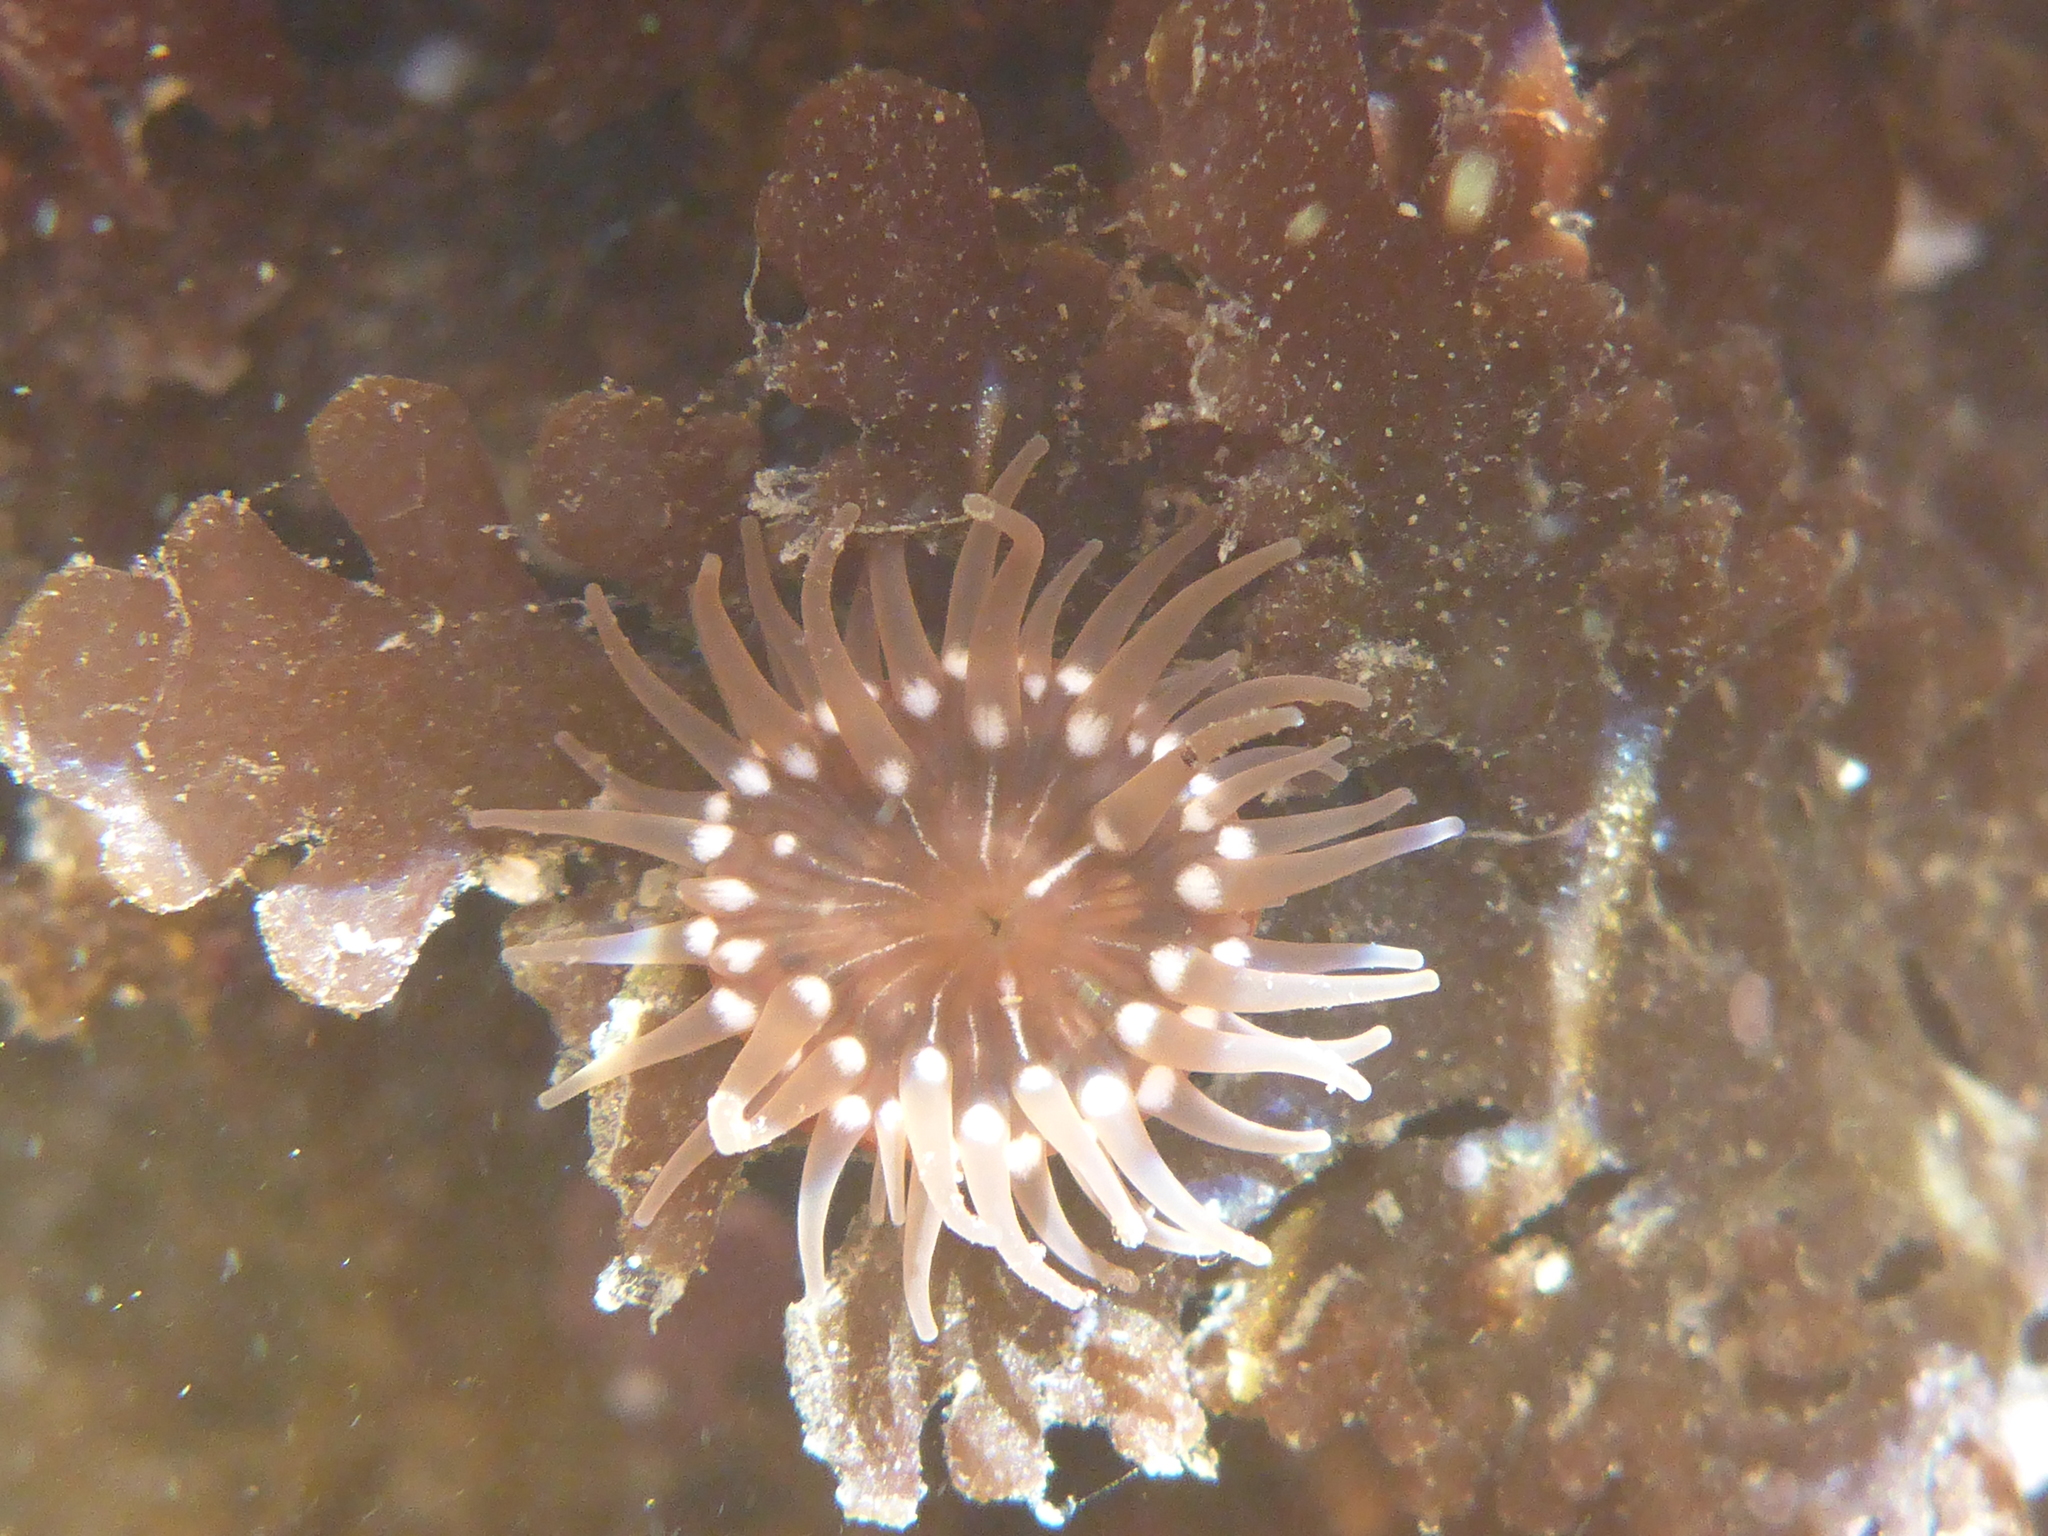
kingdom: Animalia
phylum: Cnidaria
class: Anthozoa
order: Actiniaria
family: Actiniidae
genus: Epiactis
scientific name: Epiactis prolifera
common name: Brooding anemone
